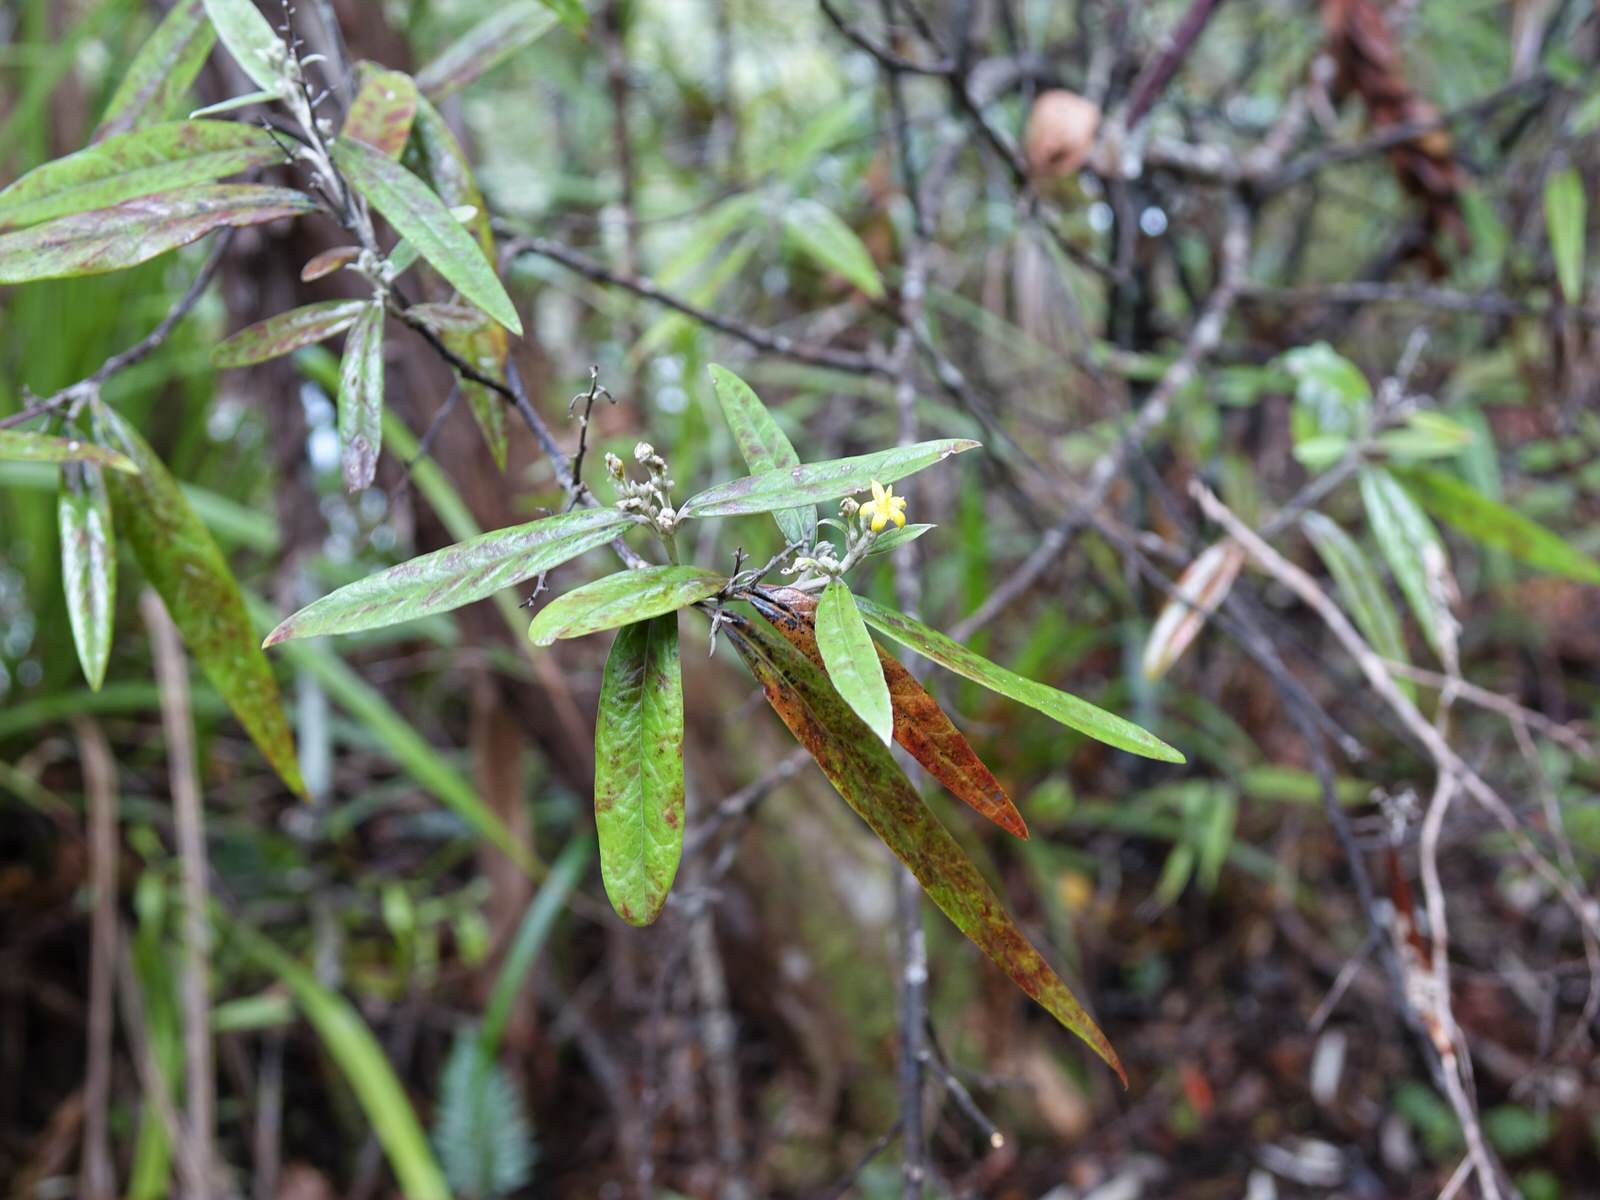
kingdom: Plantae
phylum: Tracheophyta
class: Magnoliopsida
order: Asterales
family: Argophyllaceae
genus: Corokia
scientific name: Corokia buddleioides
